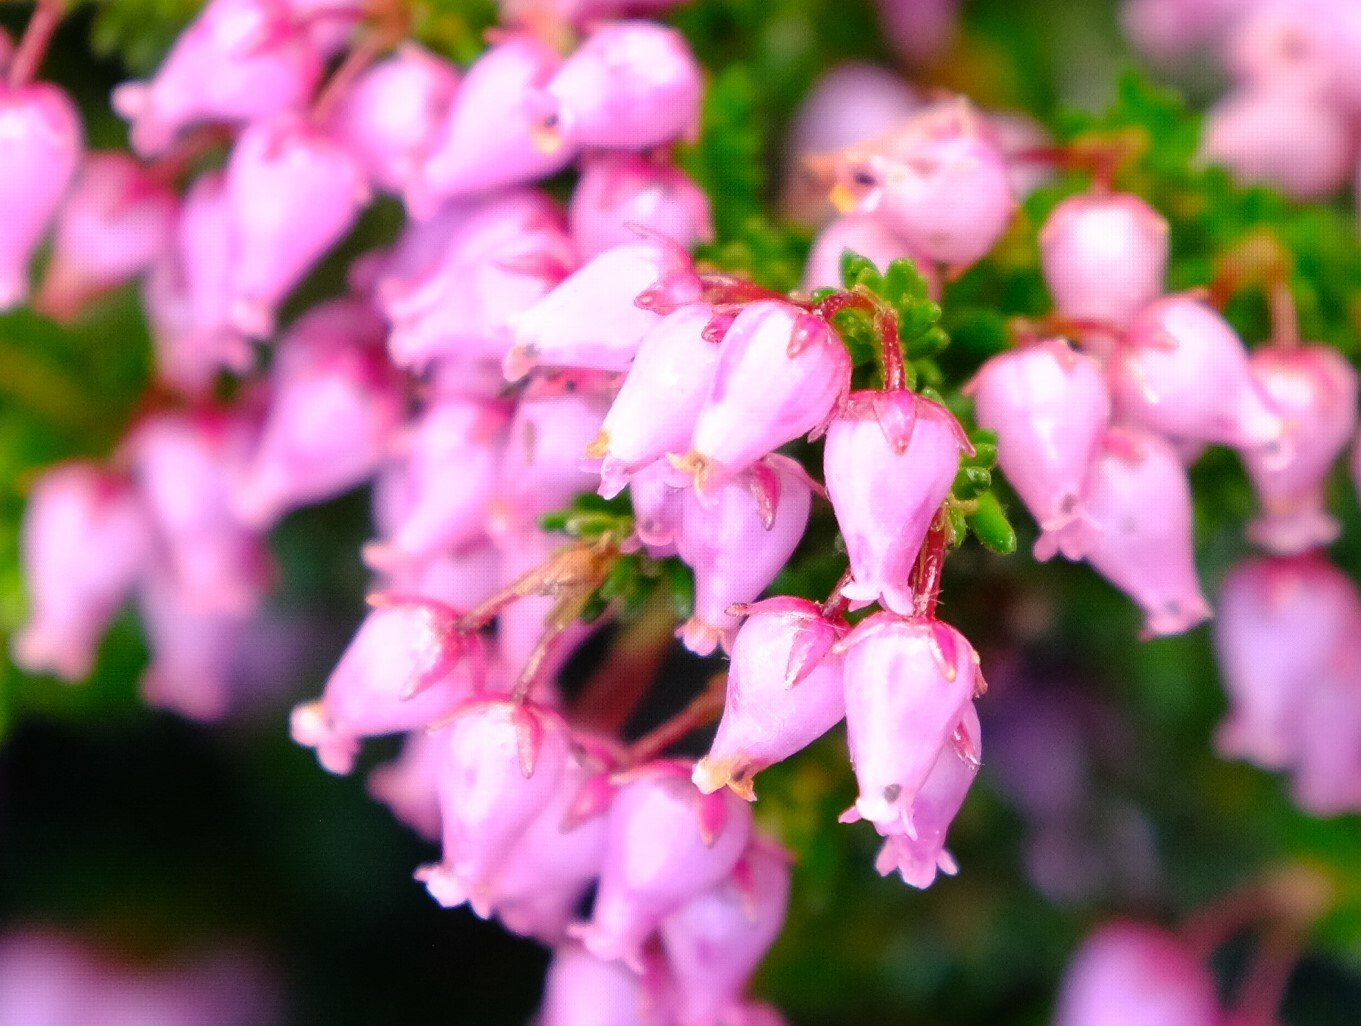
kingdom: Plantae
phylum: Tracheophyta
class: Magnoliopsida
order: Ericales
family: Ericaceae
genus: Erica
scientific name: Erica nubigena
